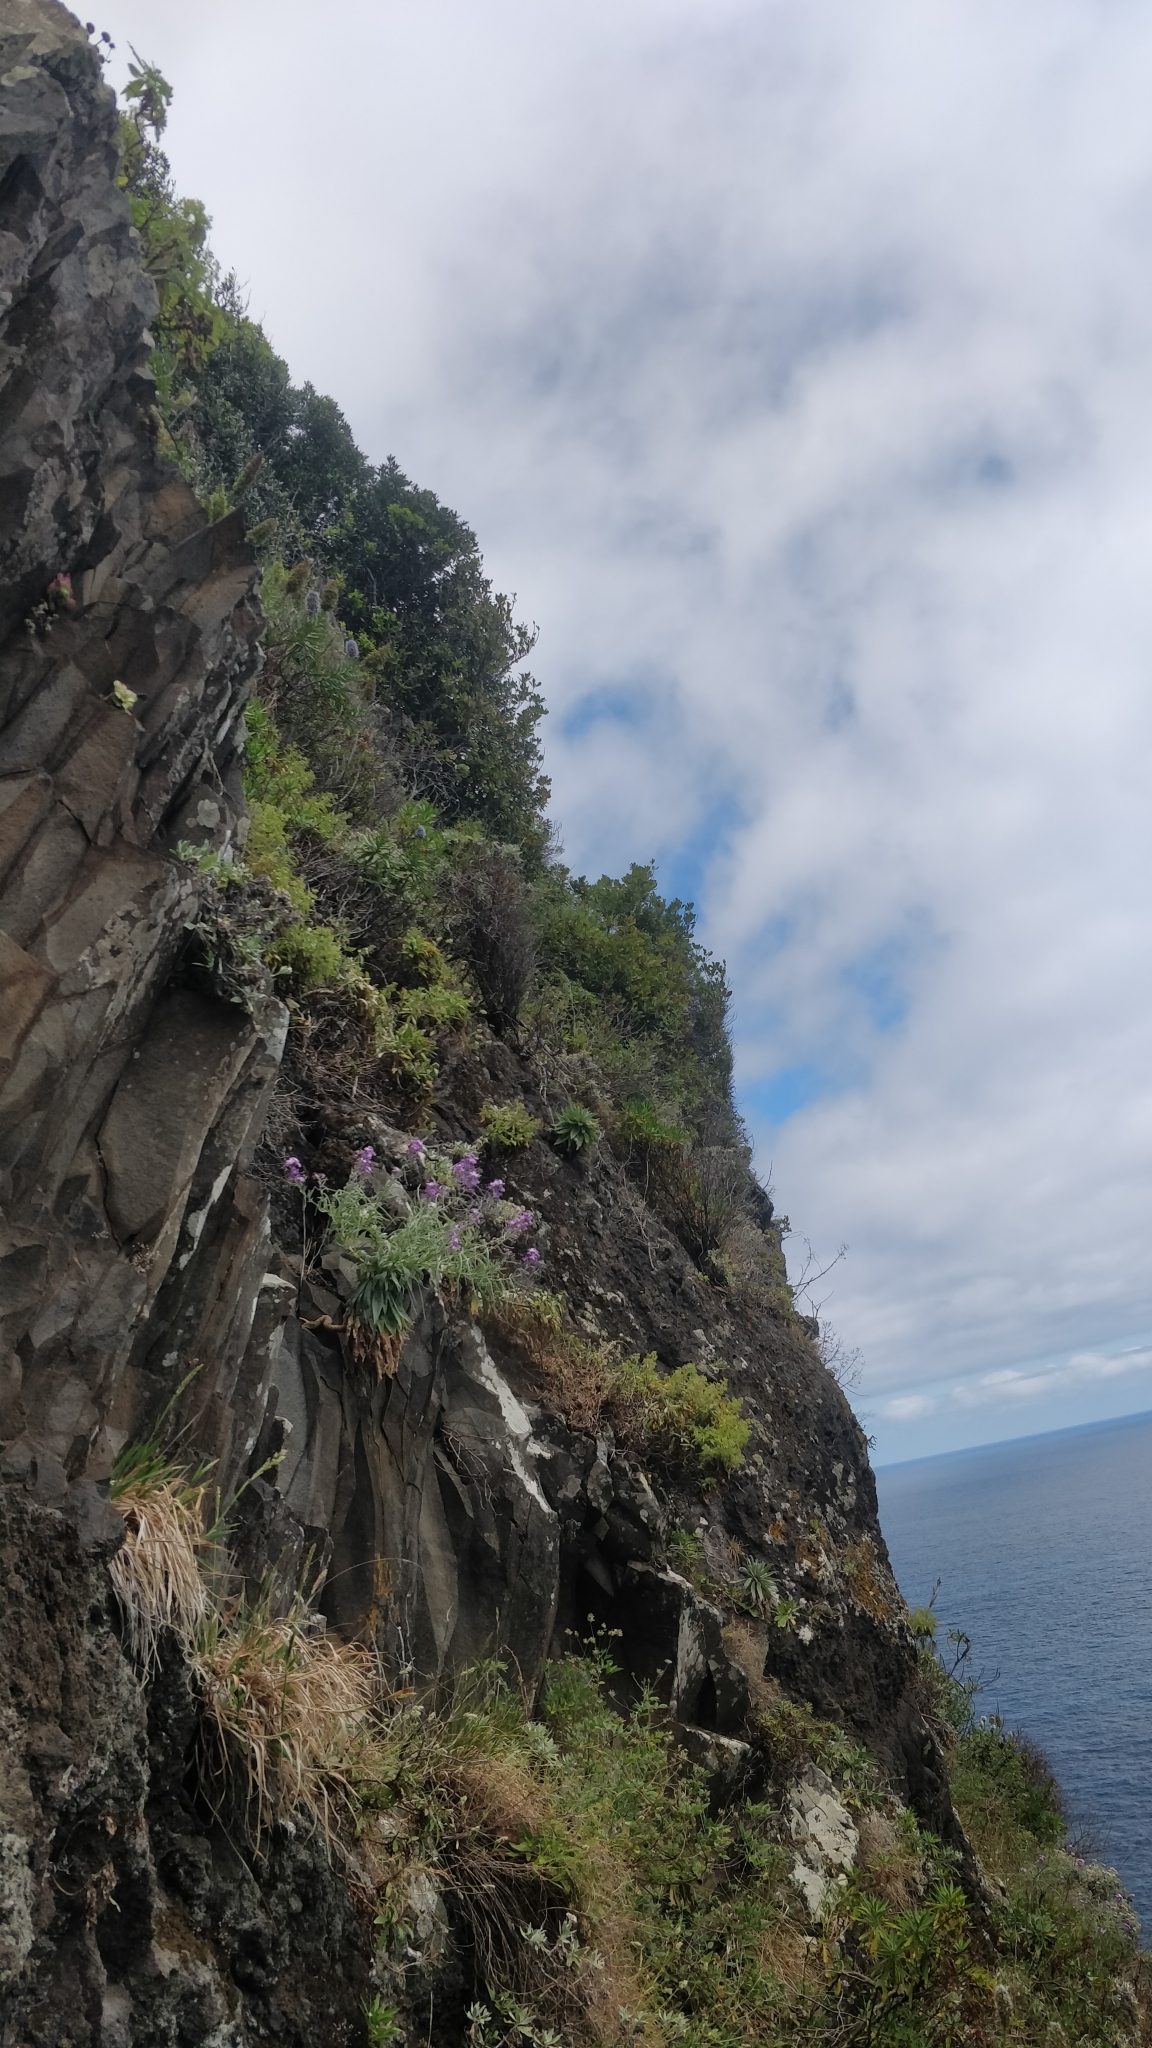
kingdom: Plantae
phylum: Tracheophyta
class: Magnoliopsida
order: Brassicales
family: Brassicaceae
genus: Matthiola
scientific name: Matthiola maderensis
